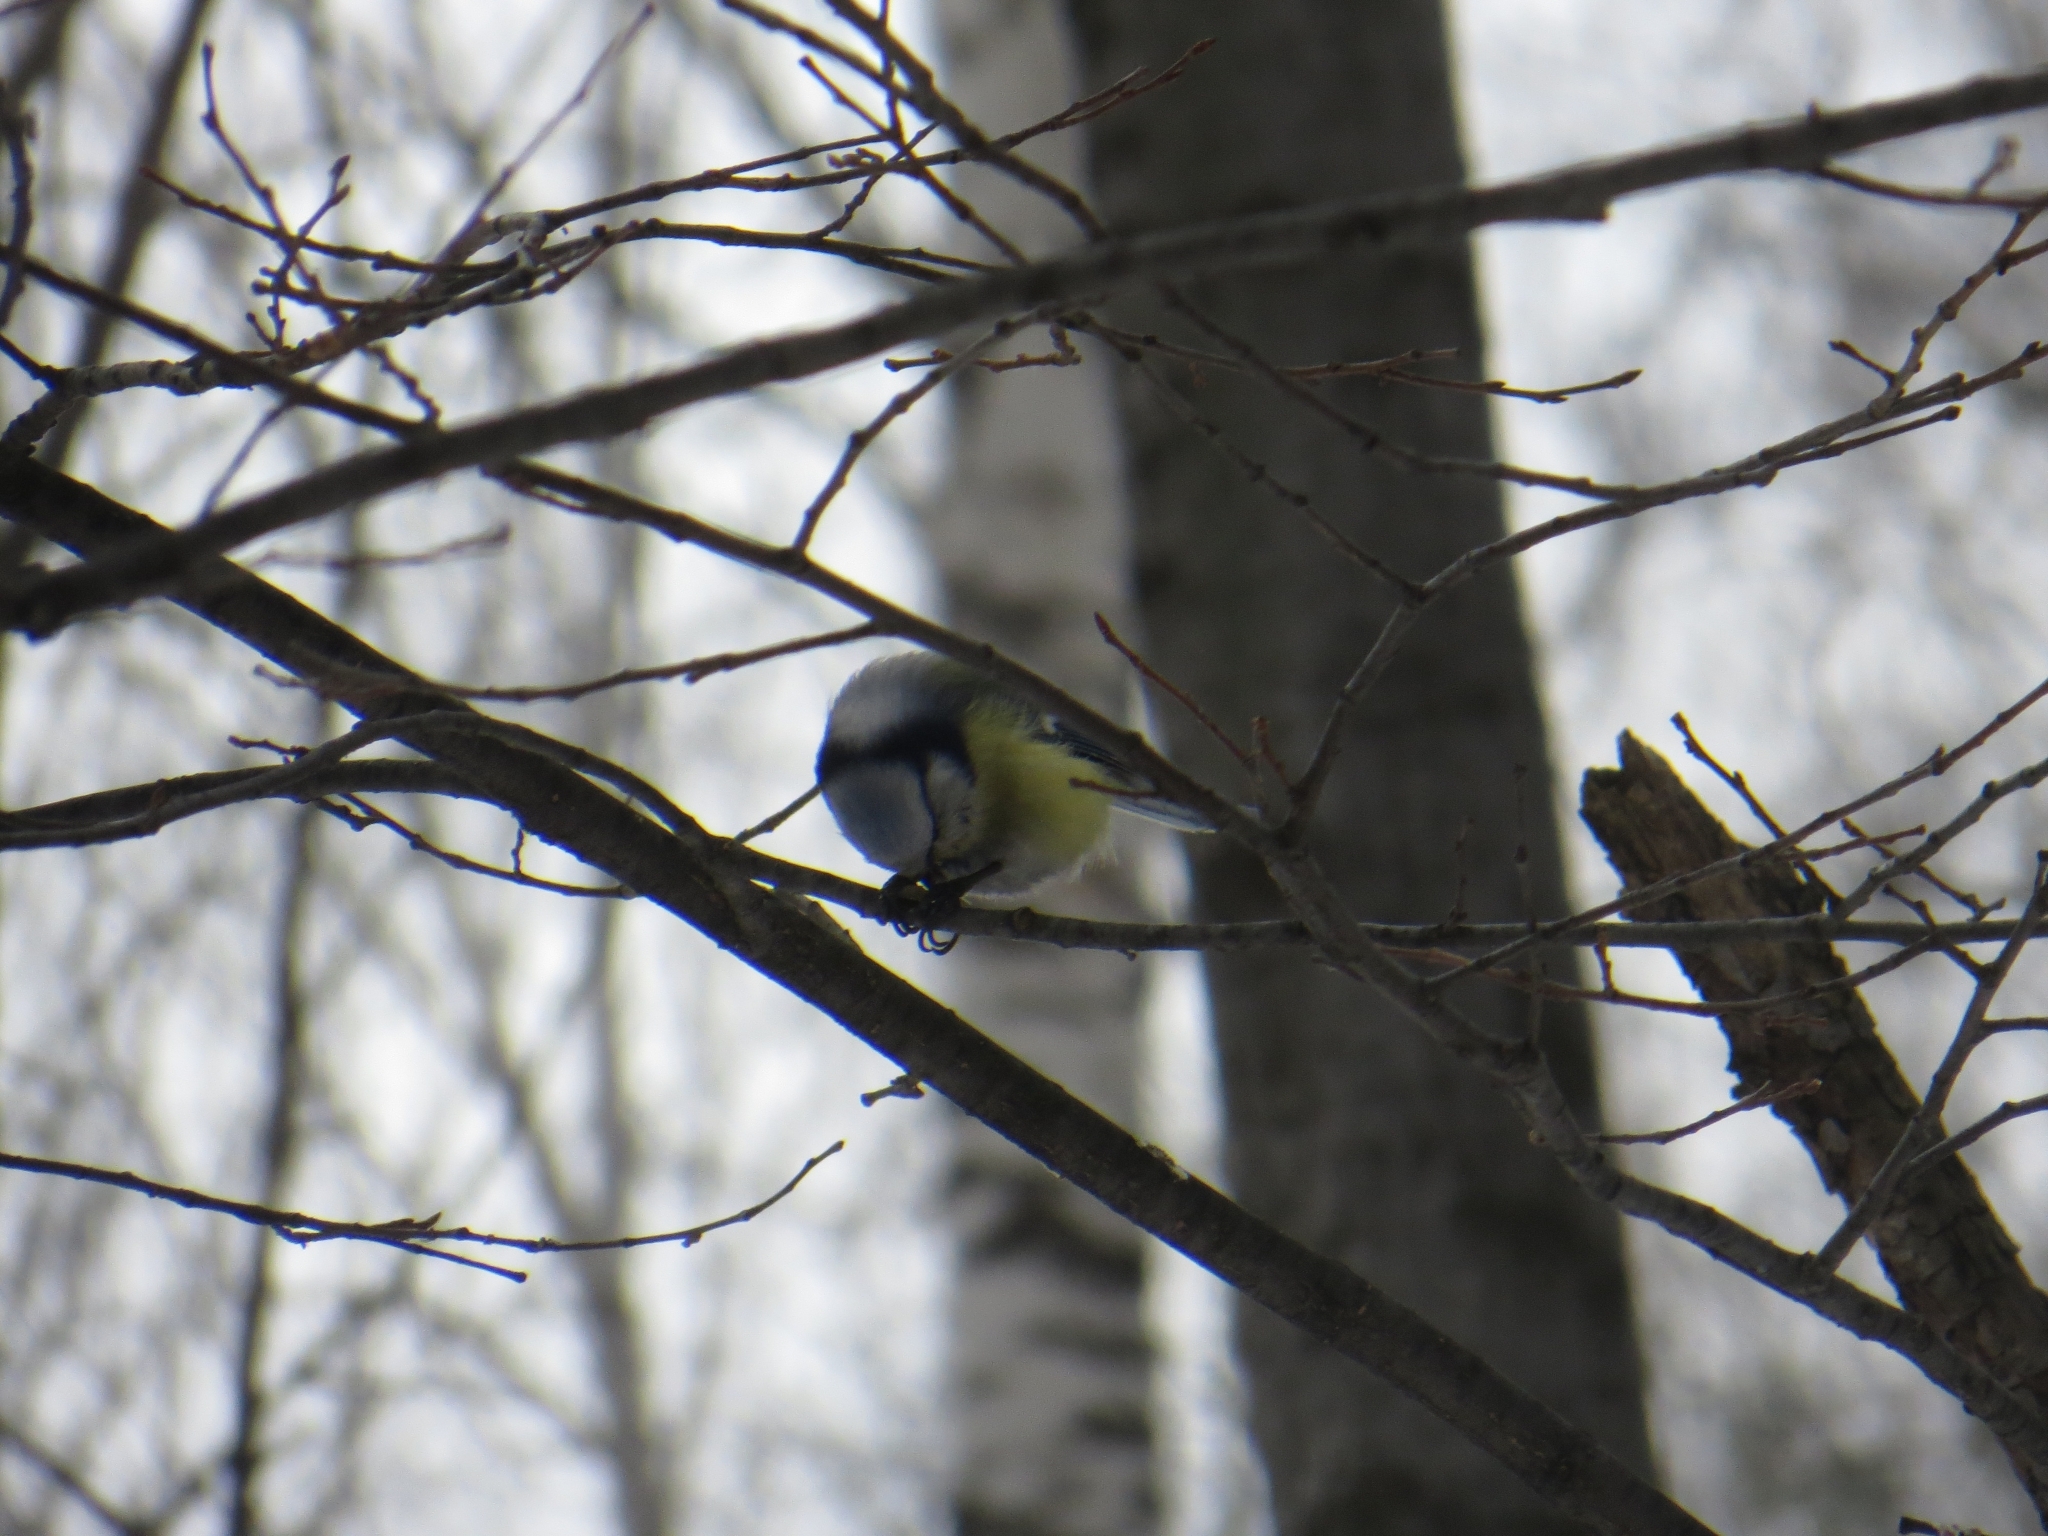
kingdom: Animalia
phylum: Chordata
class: Aves
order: Passeriformes
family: Paridae
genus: Cyanistes
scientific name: Cyanistes caeruleus
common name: Eurasian blue tit
